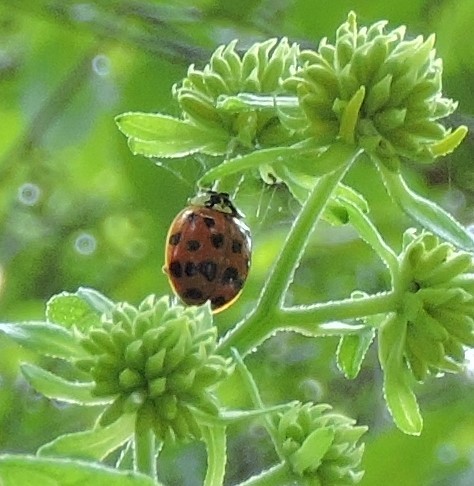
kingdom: Animalia
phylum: Arthropoda
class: Insecta
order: Coleoptera
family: Coccinellidae
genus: Harmonia
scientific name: Harmonia axyridis
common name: Harlequin ladybird
